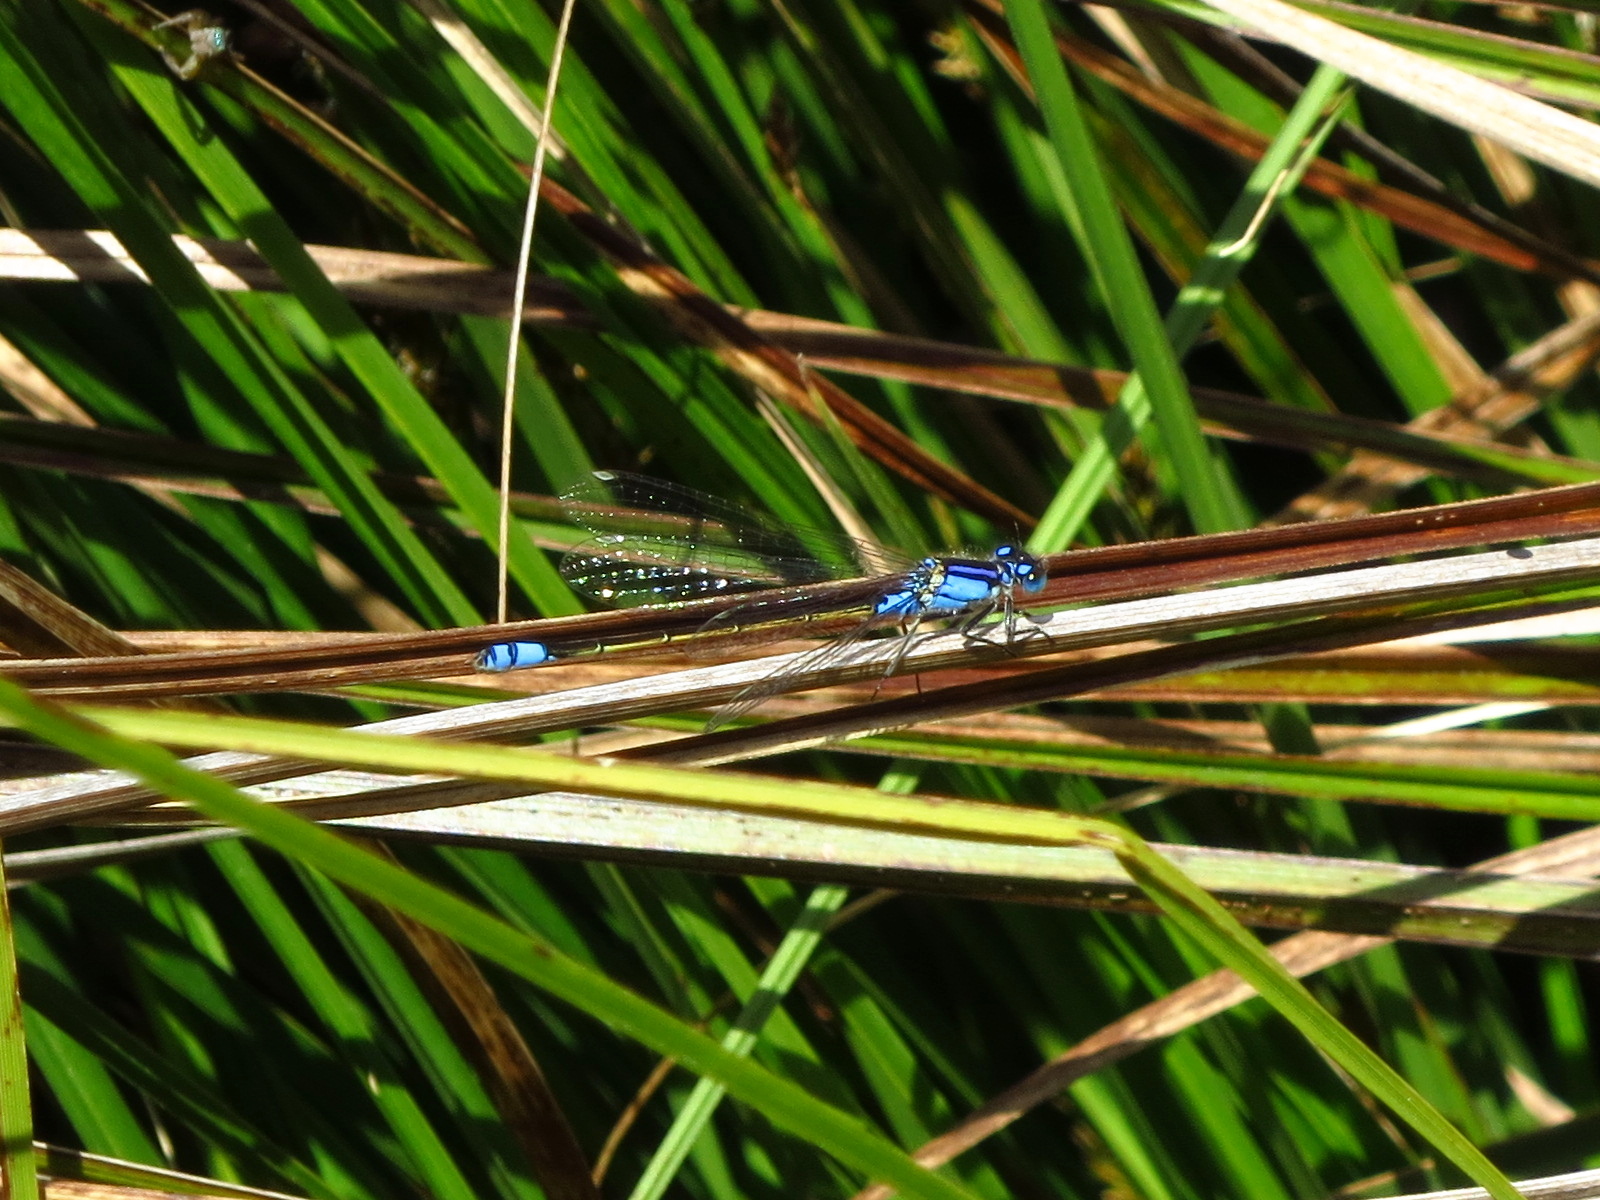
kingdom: Animalia
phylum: Arthropoda
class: Insecta
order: Odonata
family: Coenagrionidae
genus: Ischnura
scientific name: Ischnura heterosticta
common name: Common bluetail
